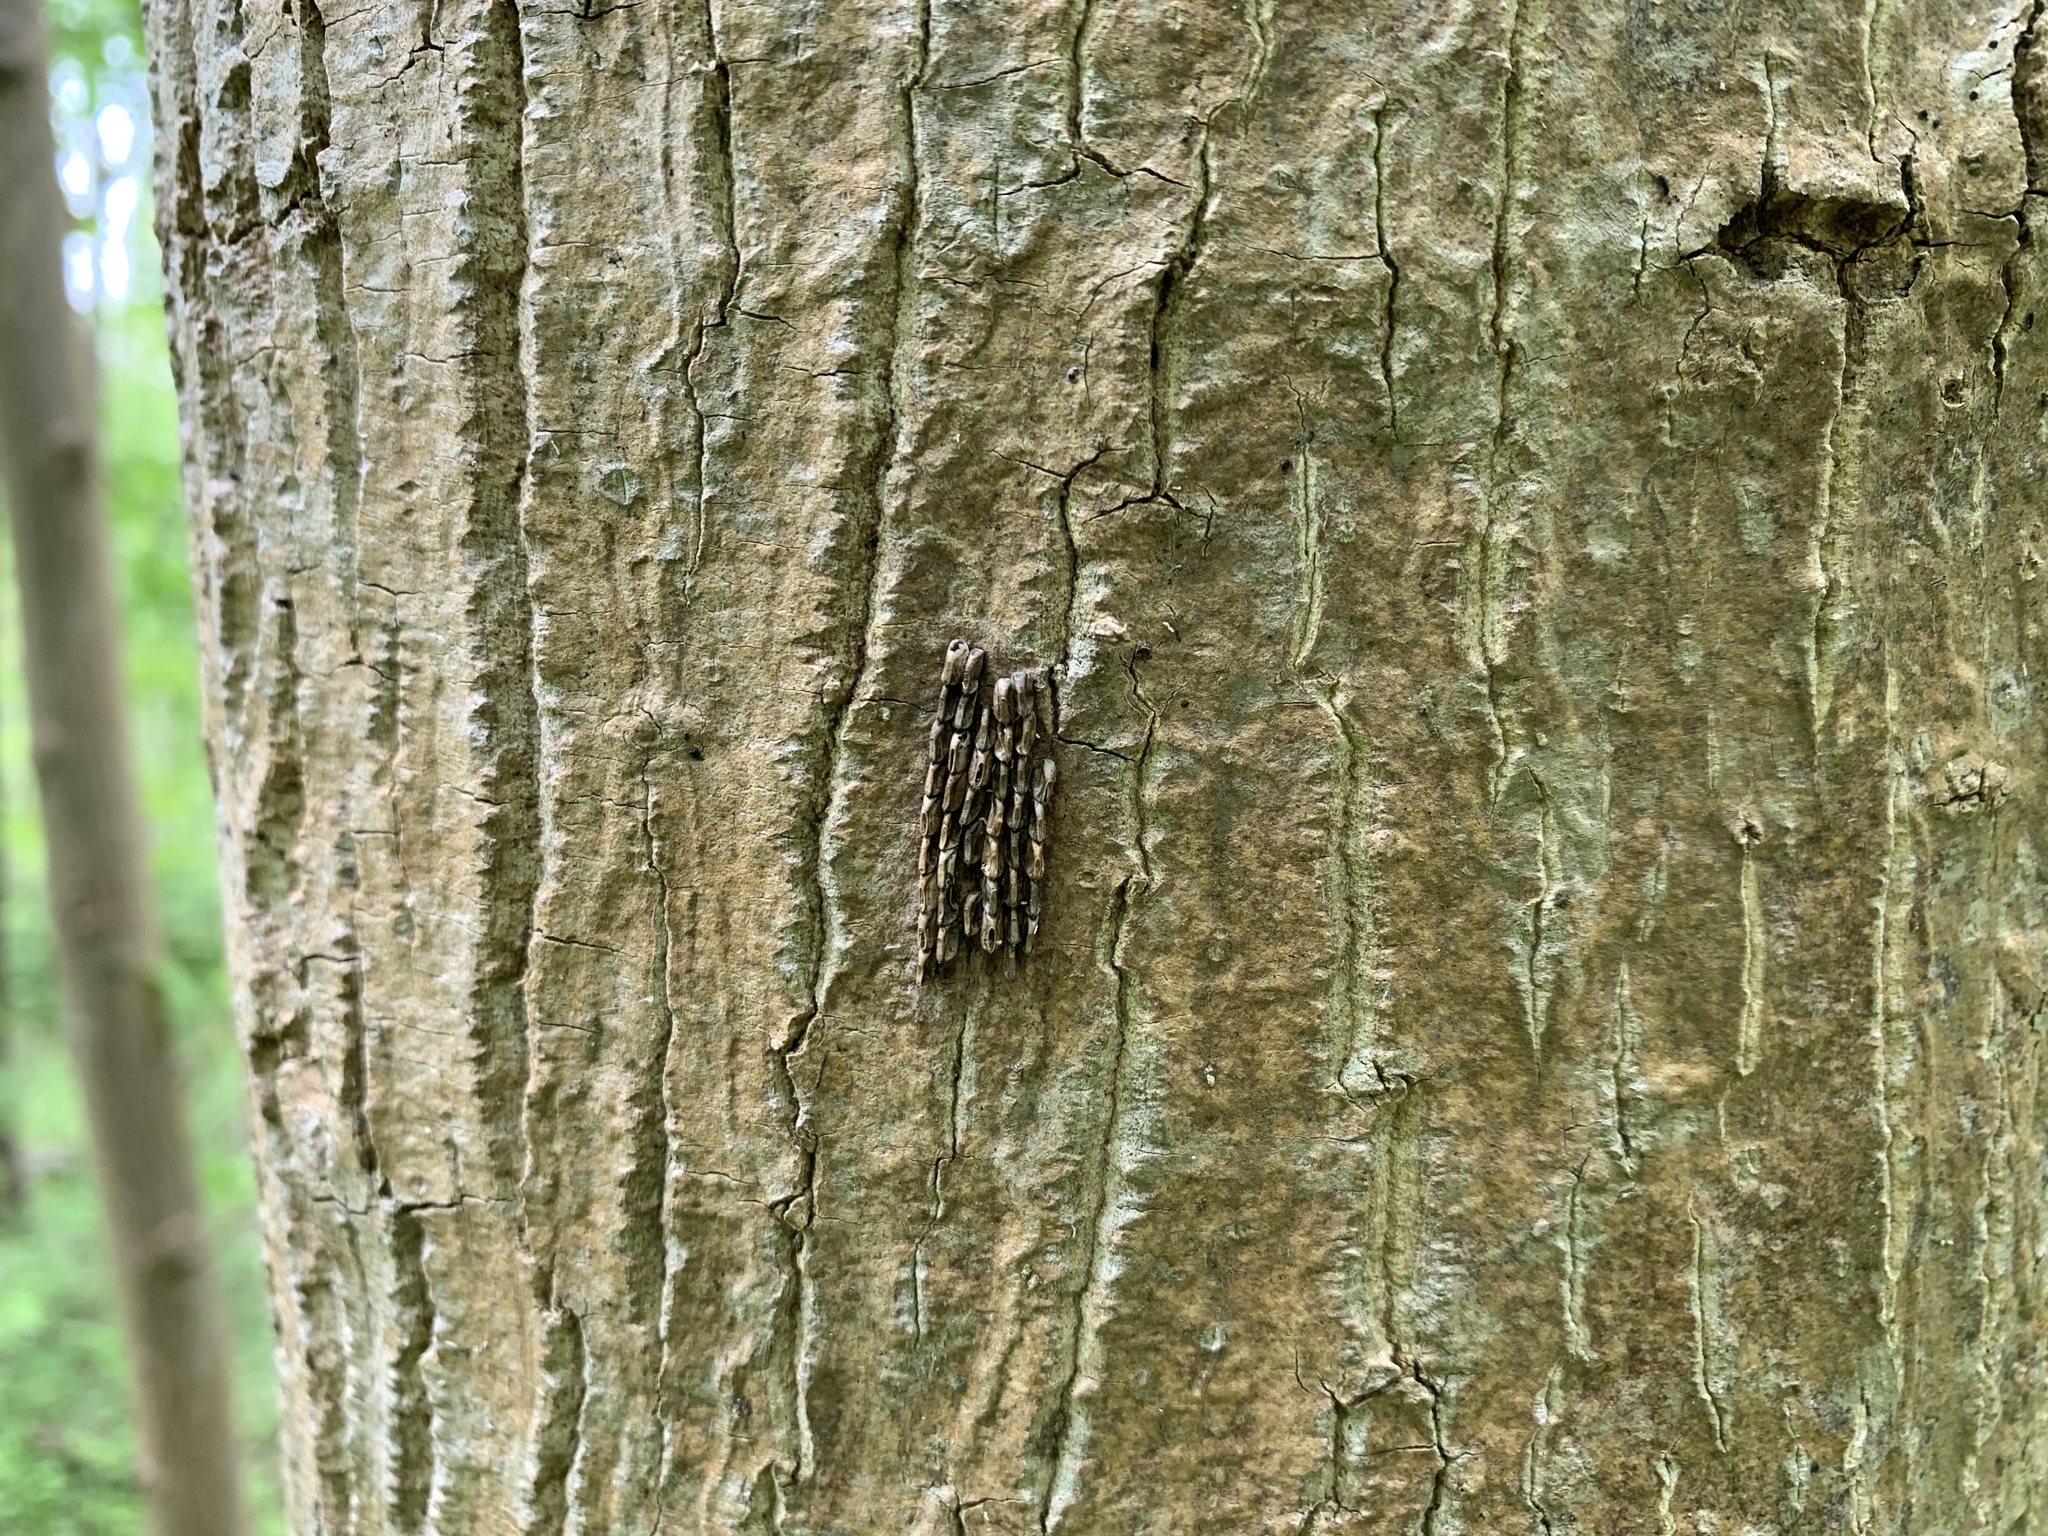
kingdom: Animalia
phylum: Arthropoda
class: Insecta
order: Hemiptera
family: Fulgoridae
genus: Lycorma
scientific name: Lycorma delicatula
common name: Spotted lanternfly
